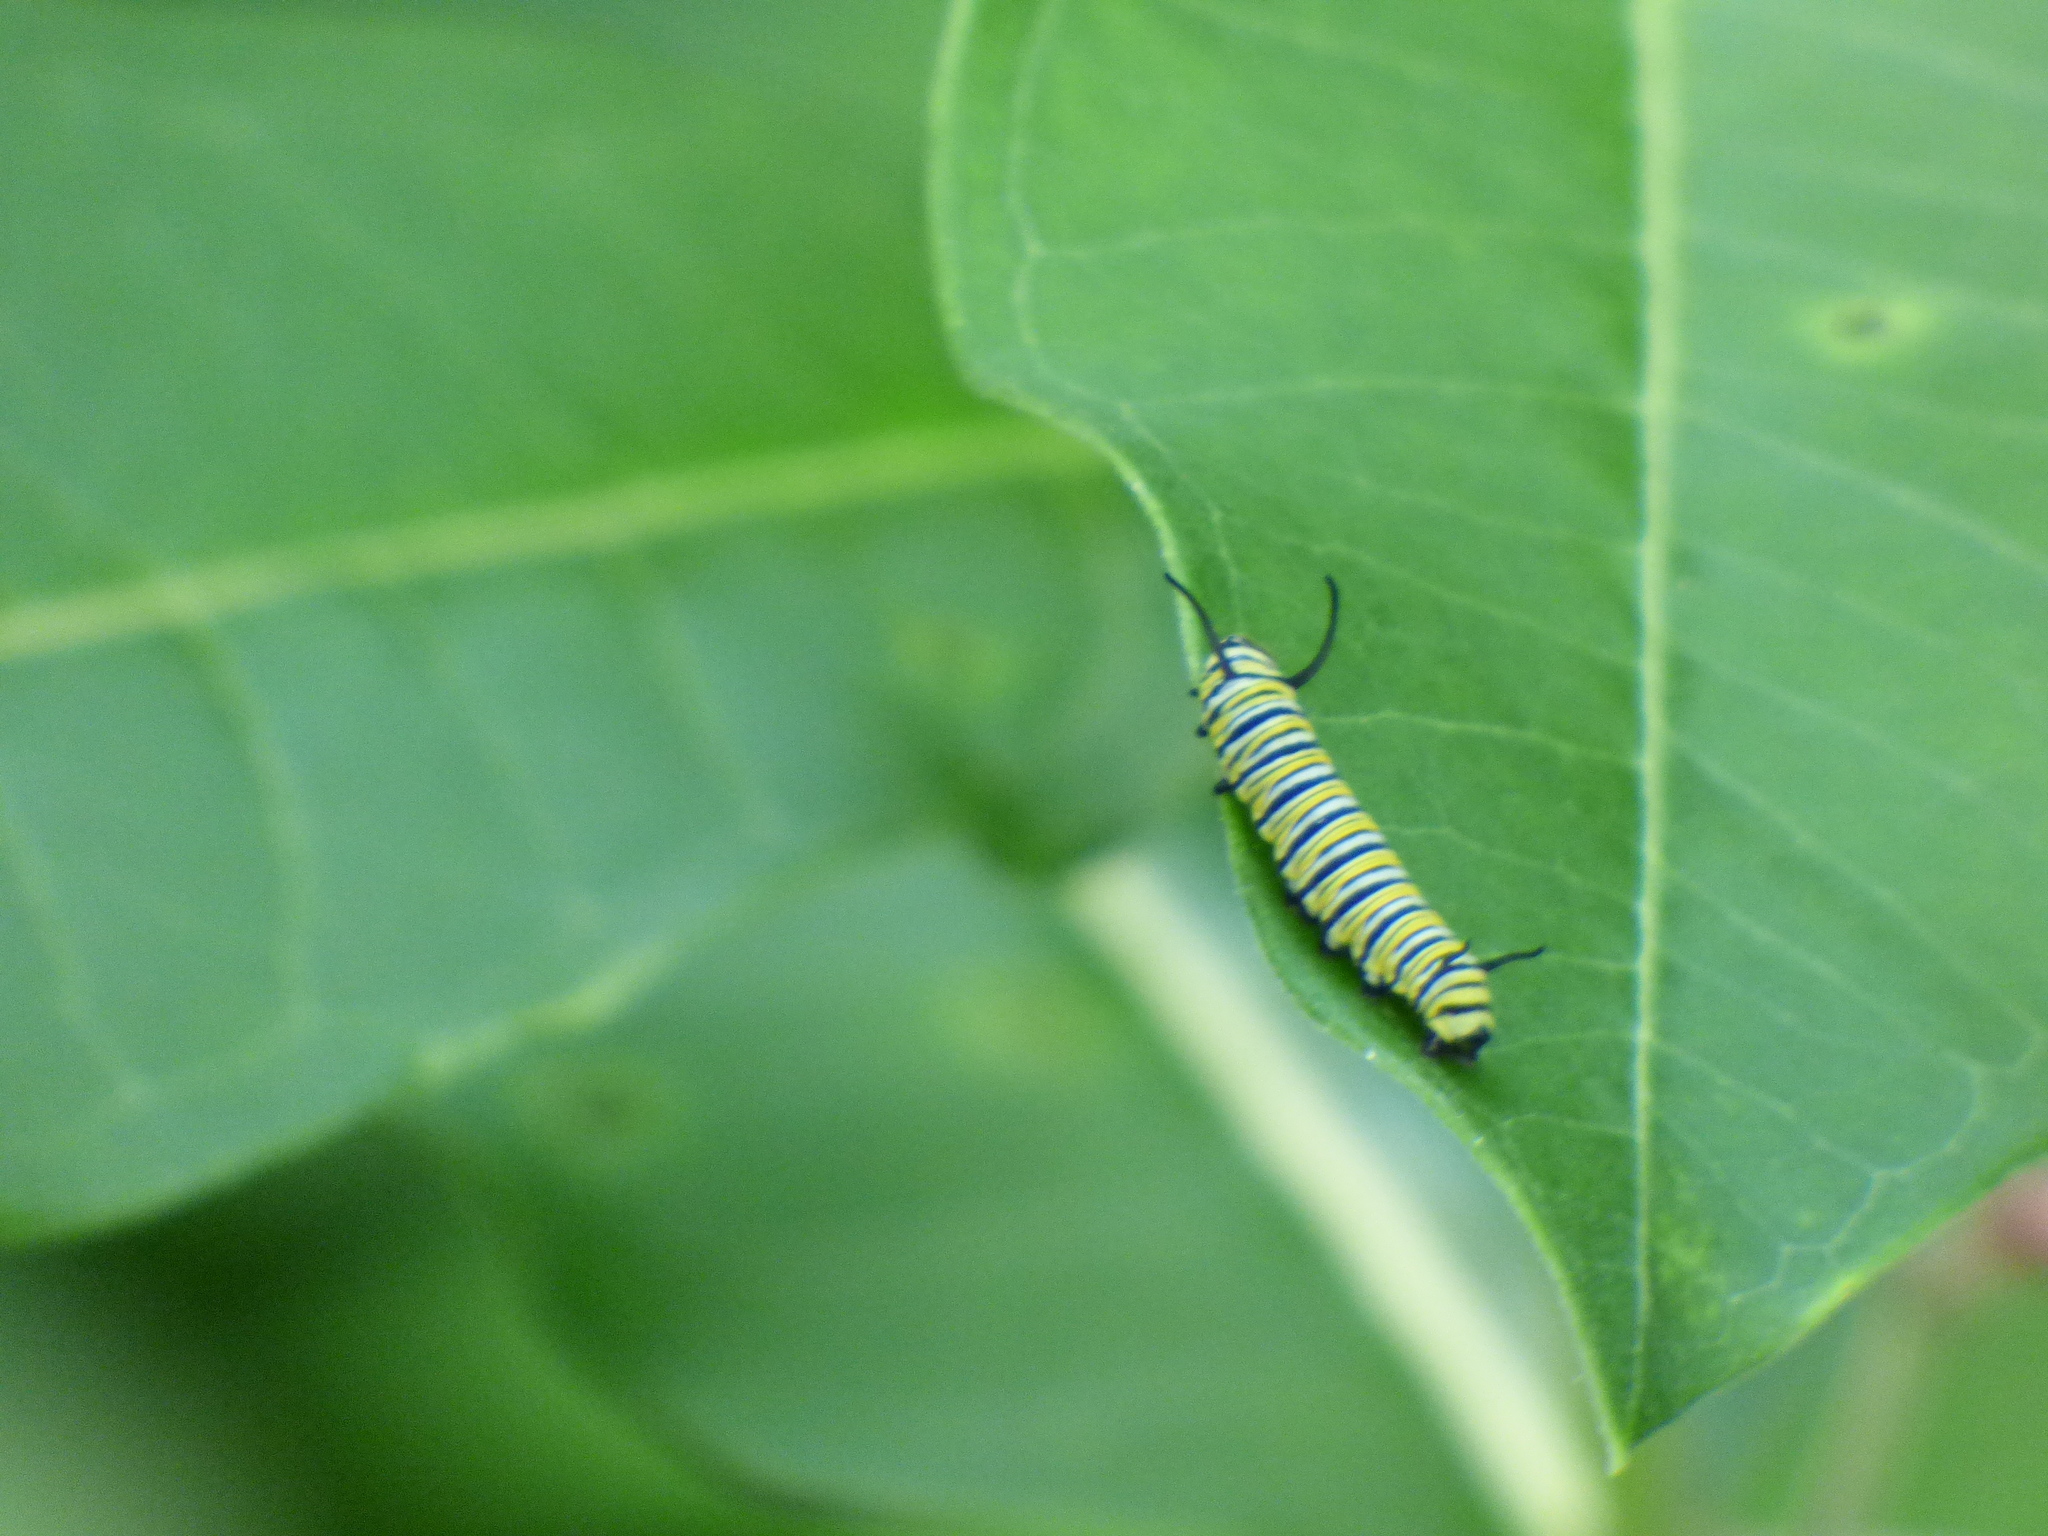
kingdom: Animalia
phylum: Arthropoda
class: Insecta
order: Lepidoptera
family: Nymphalidae
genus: Danaus
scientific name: Danaus plexippus
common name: Monarch
